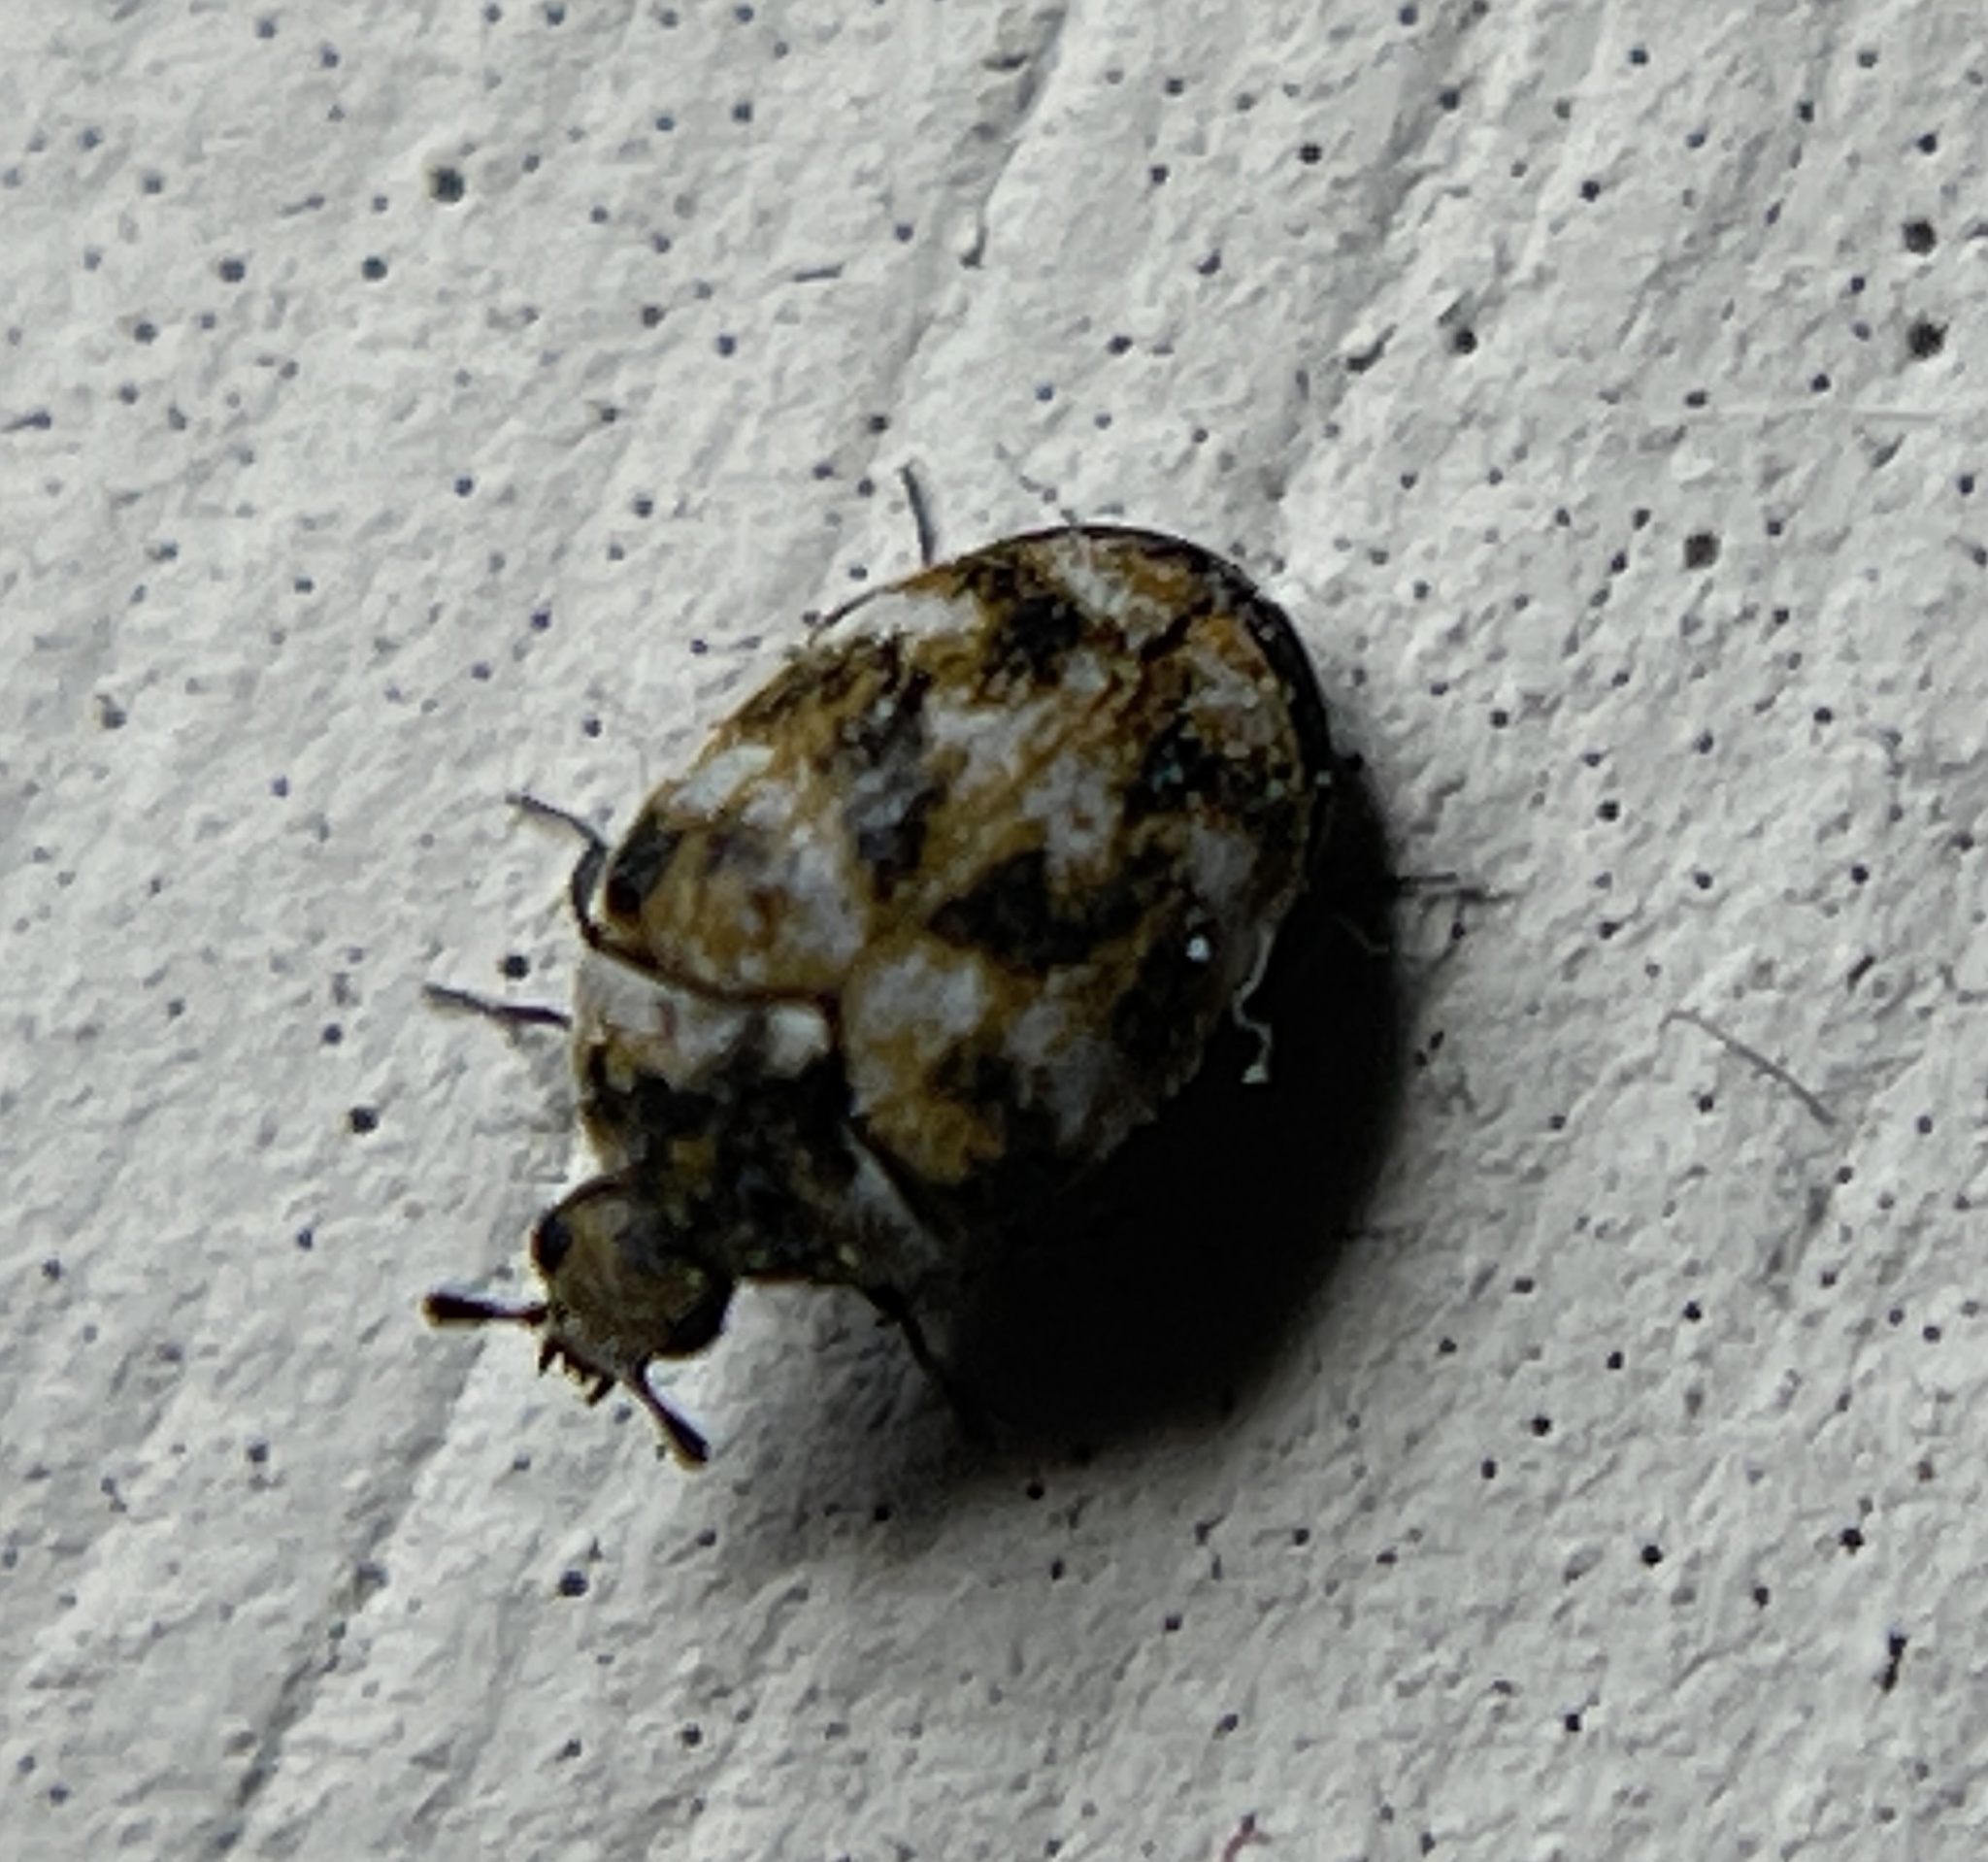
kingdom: Animalia
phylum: Arthropoda
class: Insecta
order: Coleoptera
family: Dermestidae
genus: Anthrenus
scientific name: Anthrenus verbasci
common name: Varied carpet beetle
